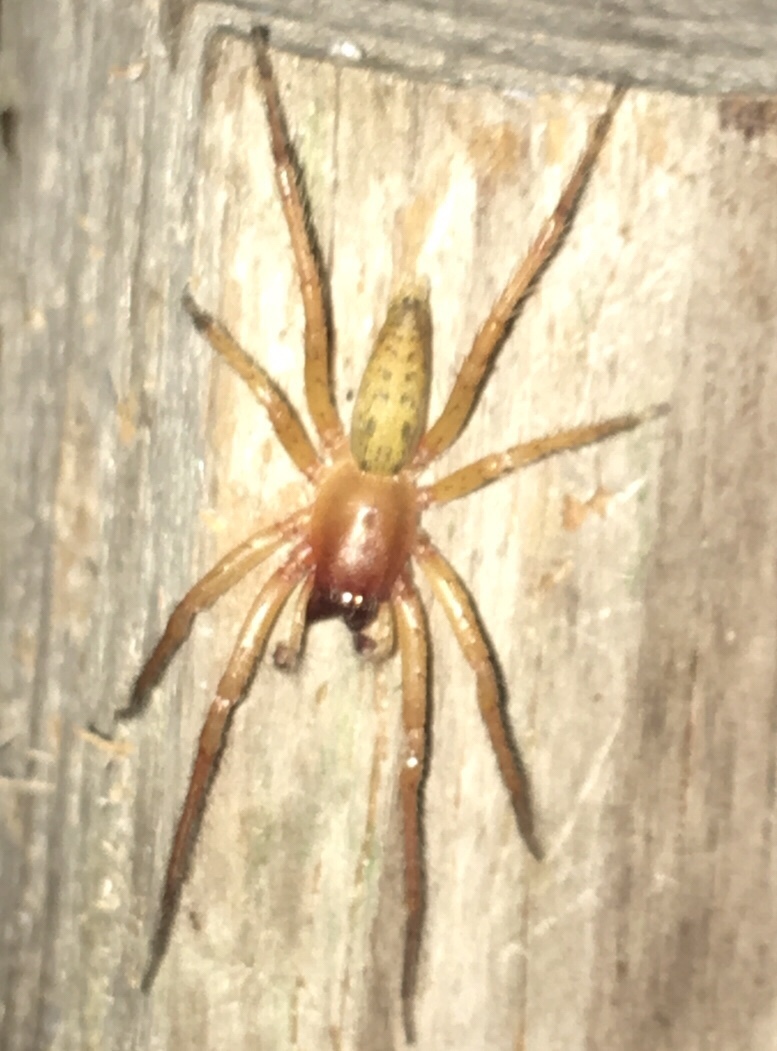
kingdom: Animalia
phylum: Arthropoda
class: Arachnida
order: Araneae
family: Anyphaenidae
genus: Hibana
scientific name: Hibana velox
